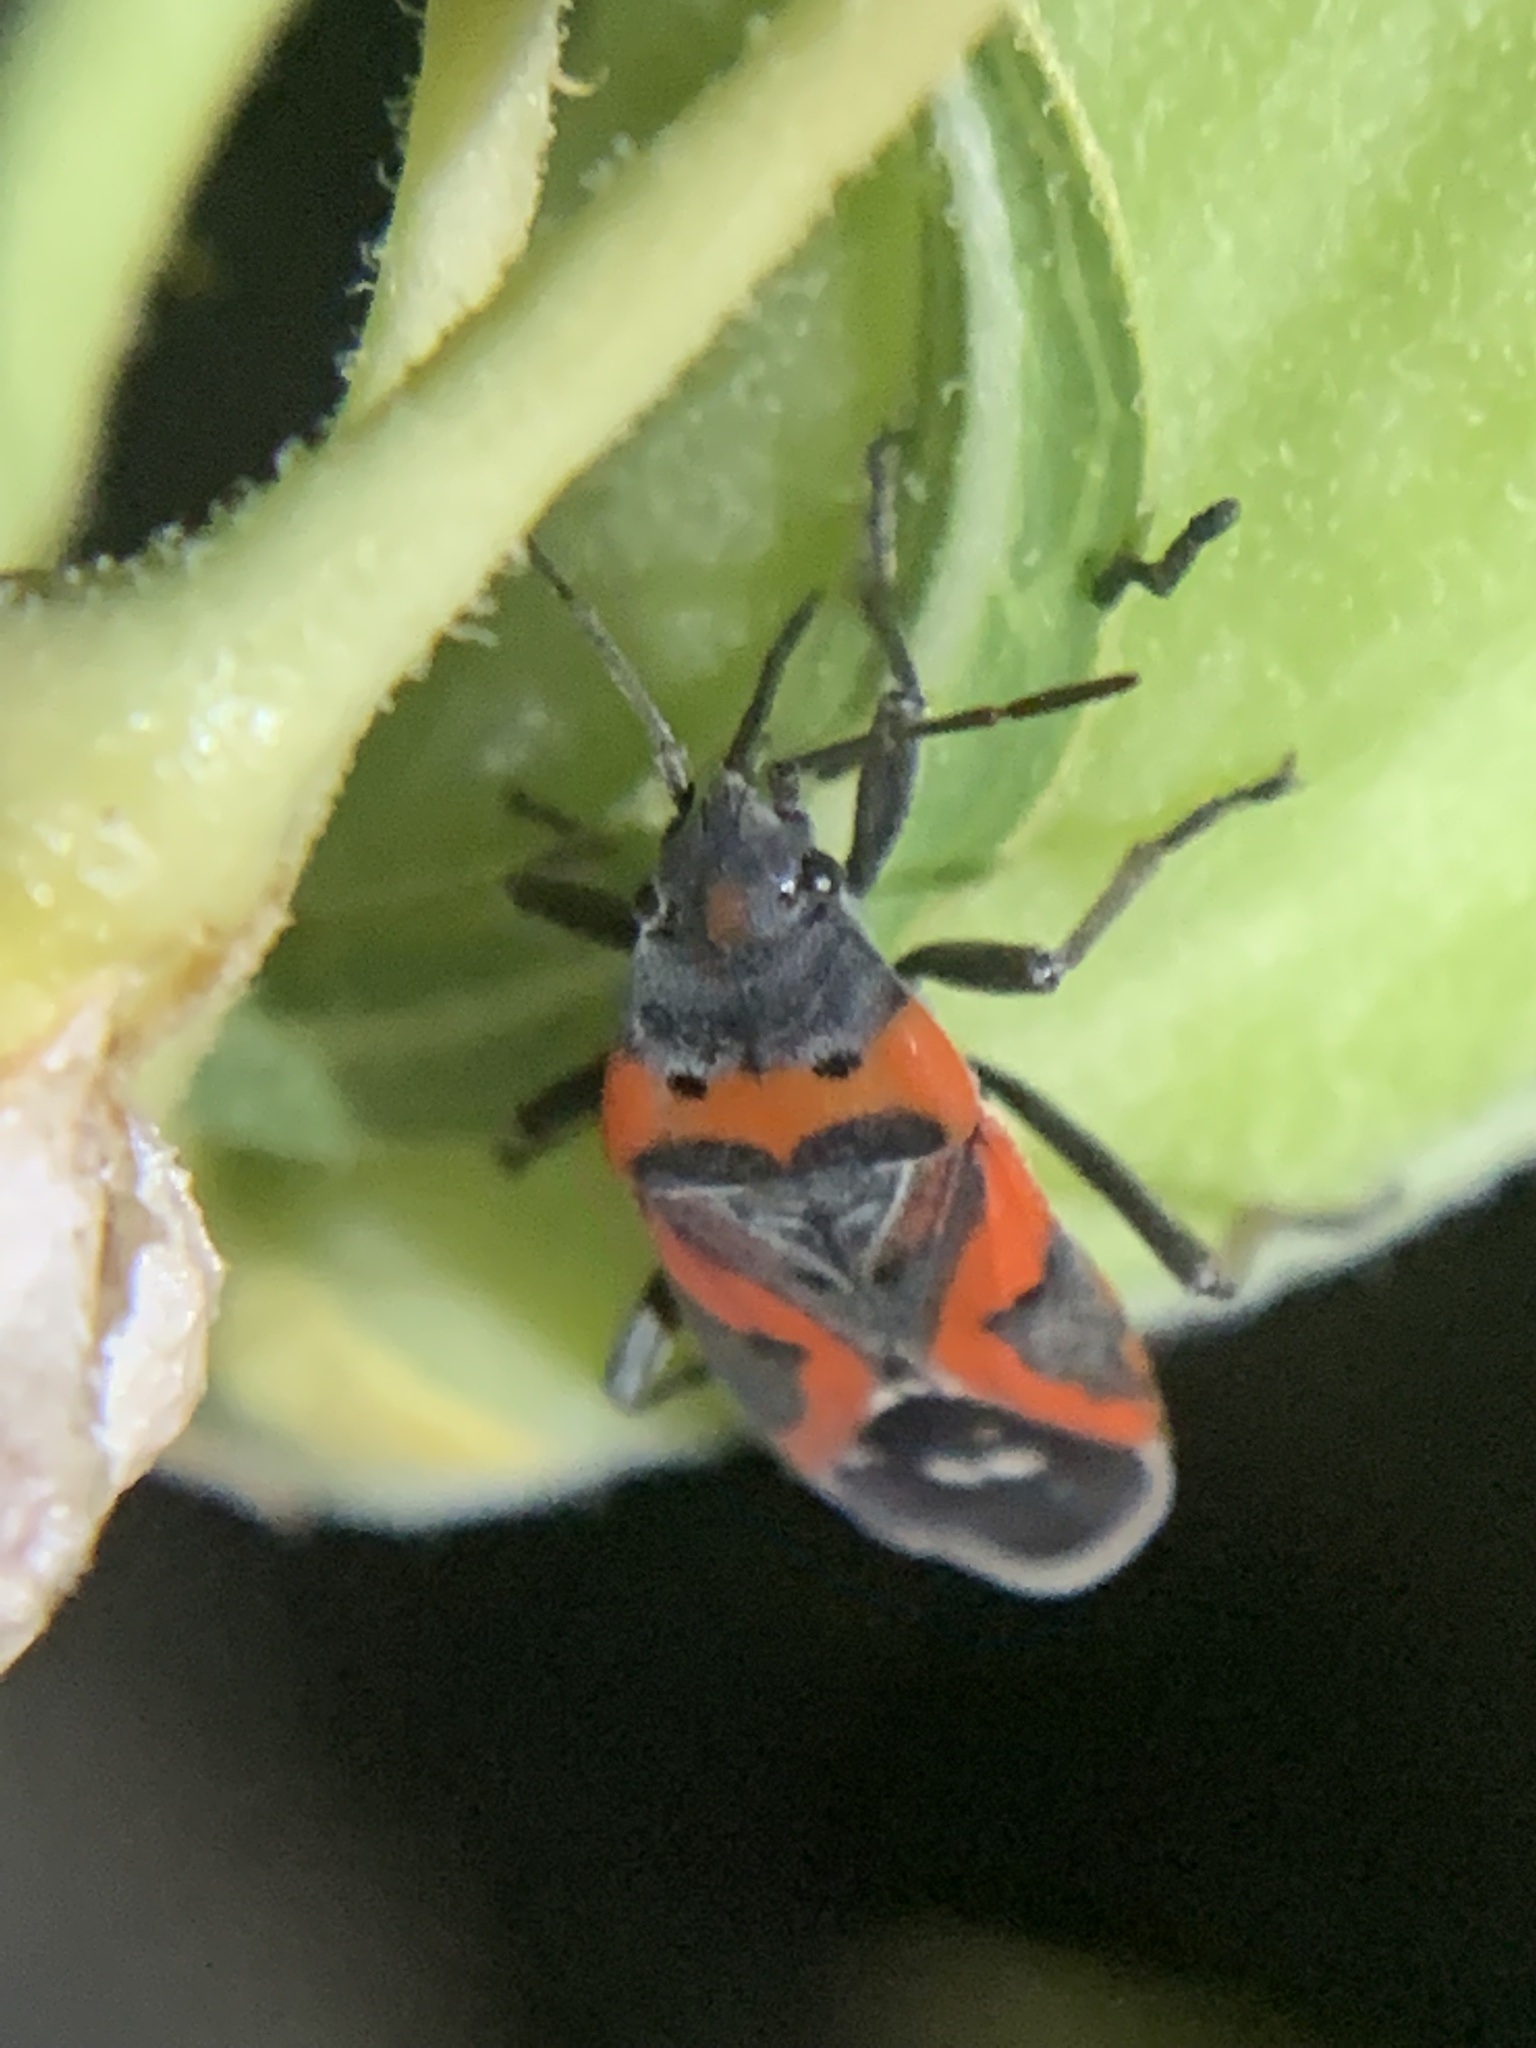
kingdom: Animalia
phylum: Arthropoda
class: Insecta
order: Hemiptera
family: Lygaeidae
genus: Lygaeus
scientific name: Lygaeus kalmii
